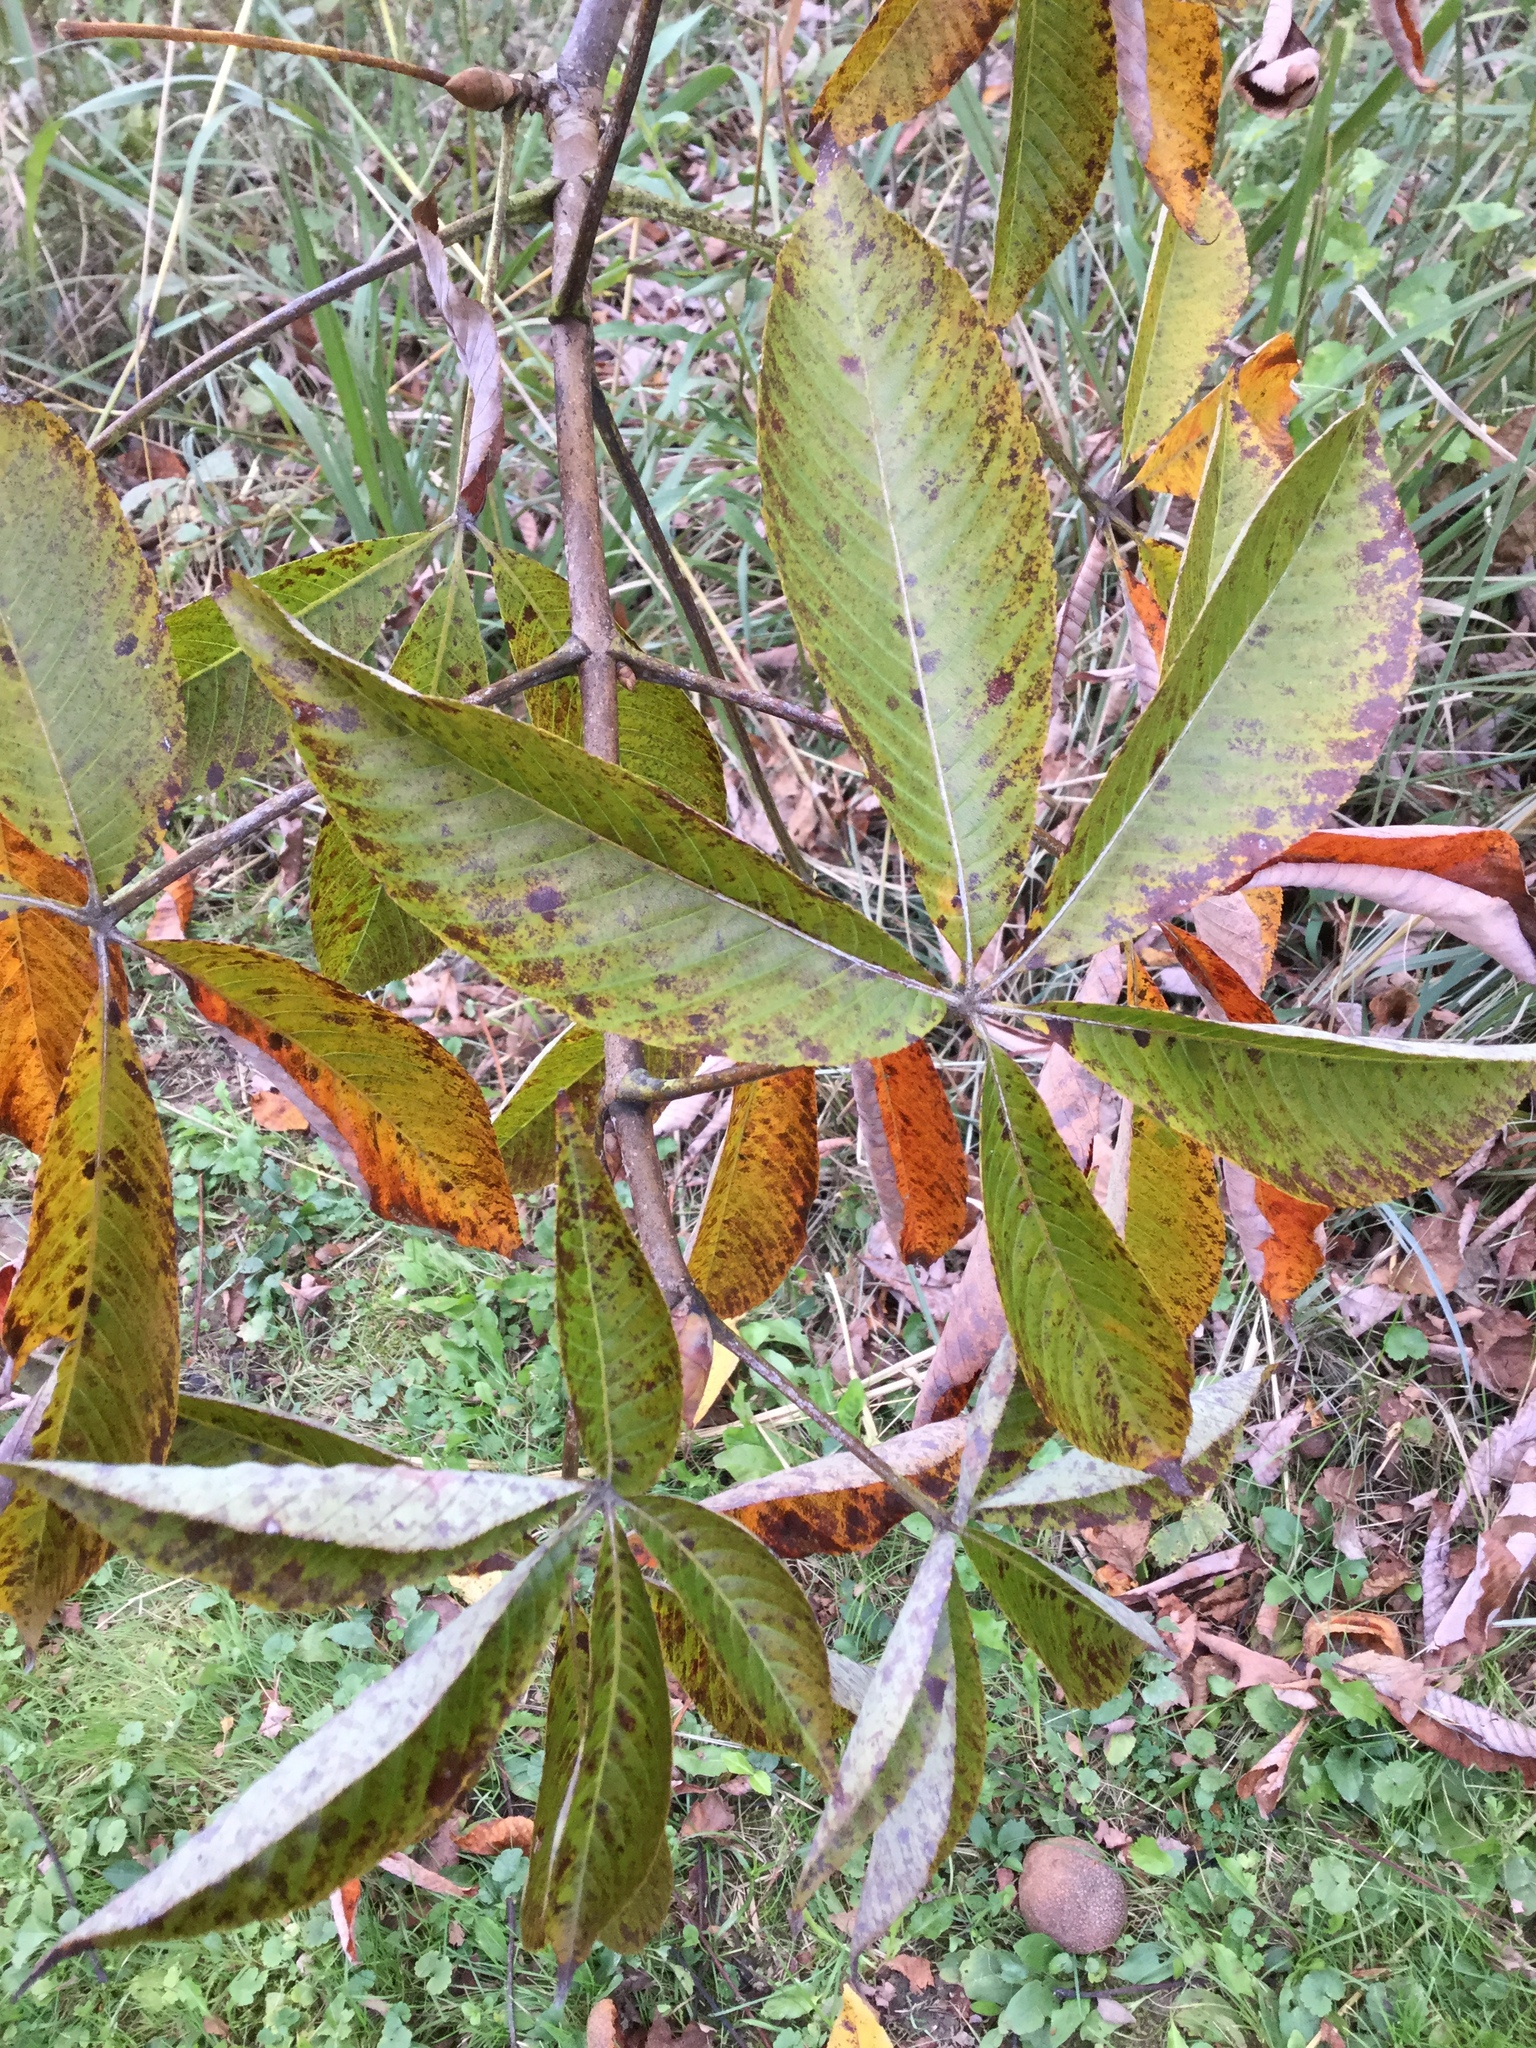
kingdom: Plantae
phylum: Tracheophyta
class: Magnoliopsida
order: Sapindales
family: Sapindaceae
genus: Aesculus
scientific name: Aesculus flava
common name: Yellow buckeye
